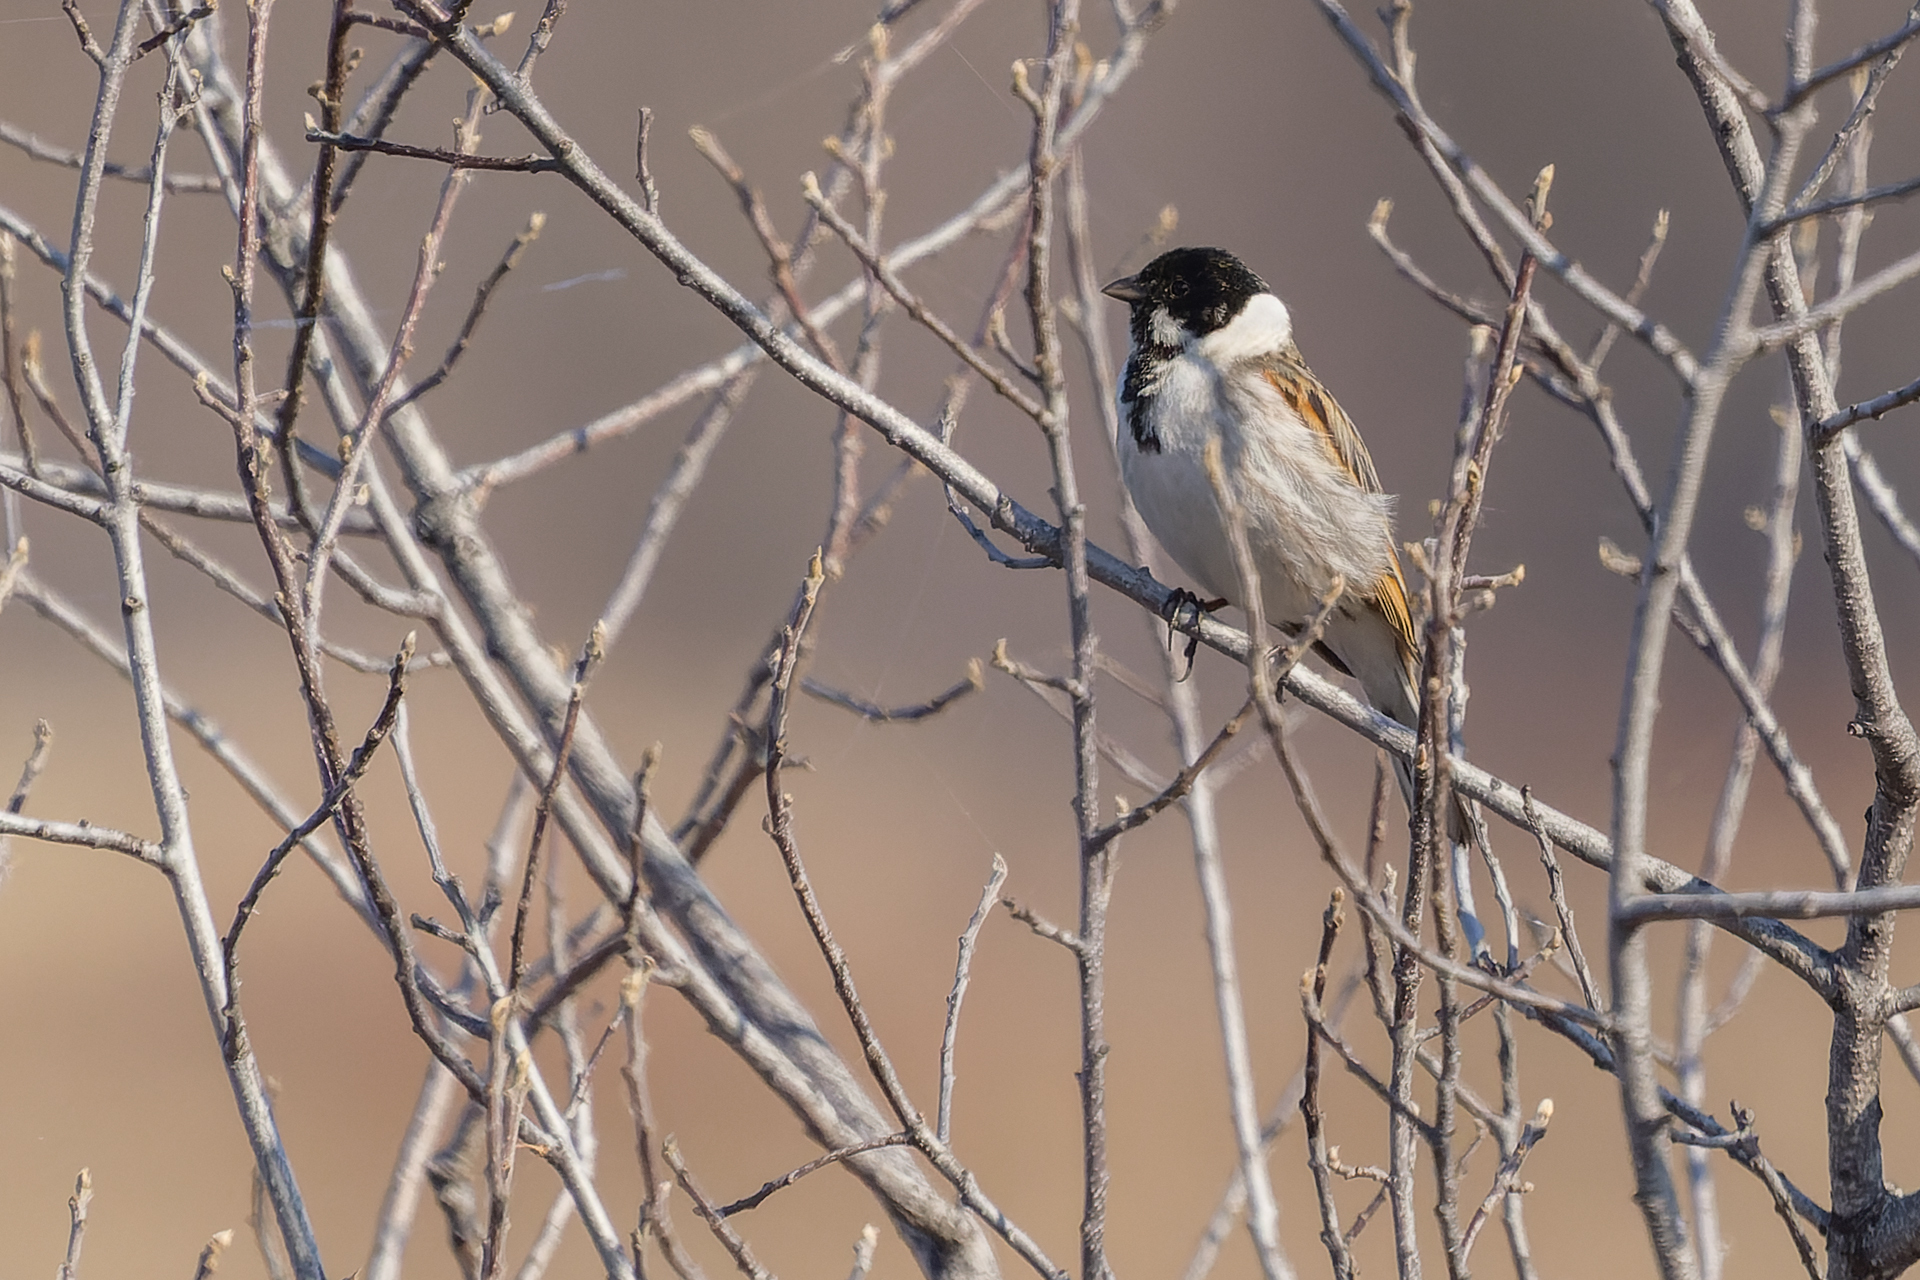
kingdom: Animalia
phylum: Chordata
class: Aves
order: Passeriformes
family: Emberizidae
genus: Emberiza
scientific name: Emberiza schoeniclus
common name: Reed bunting
